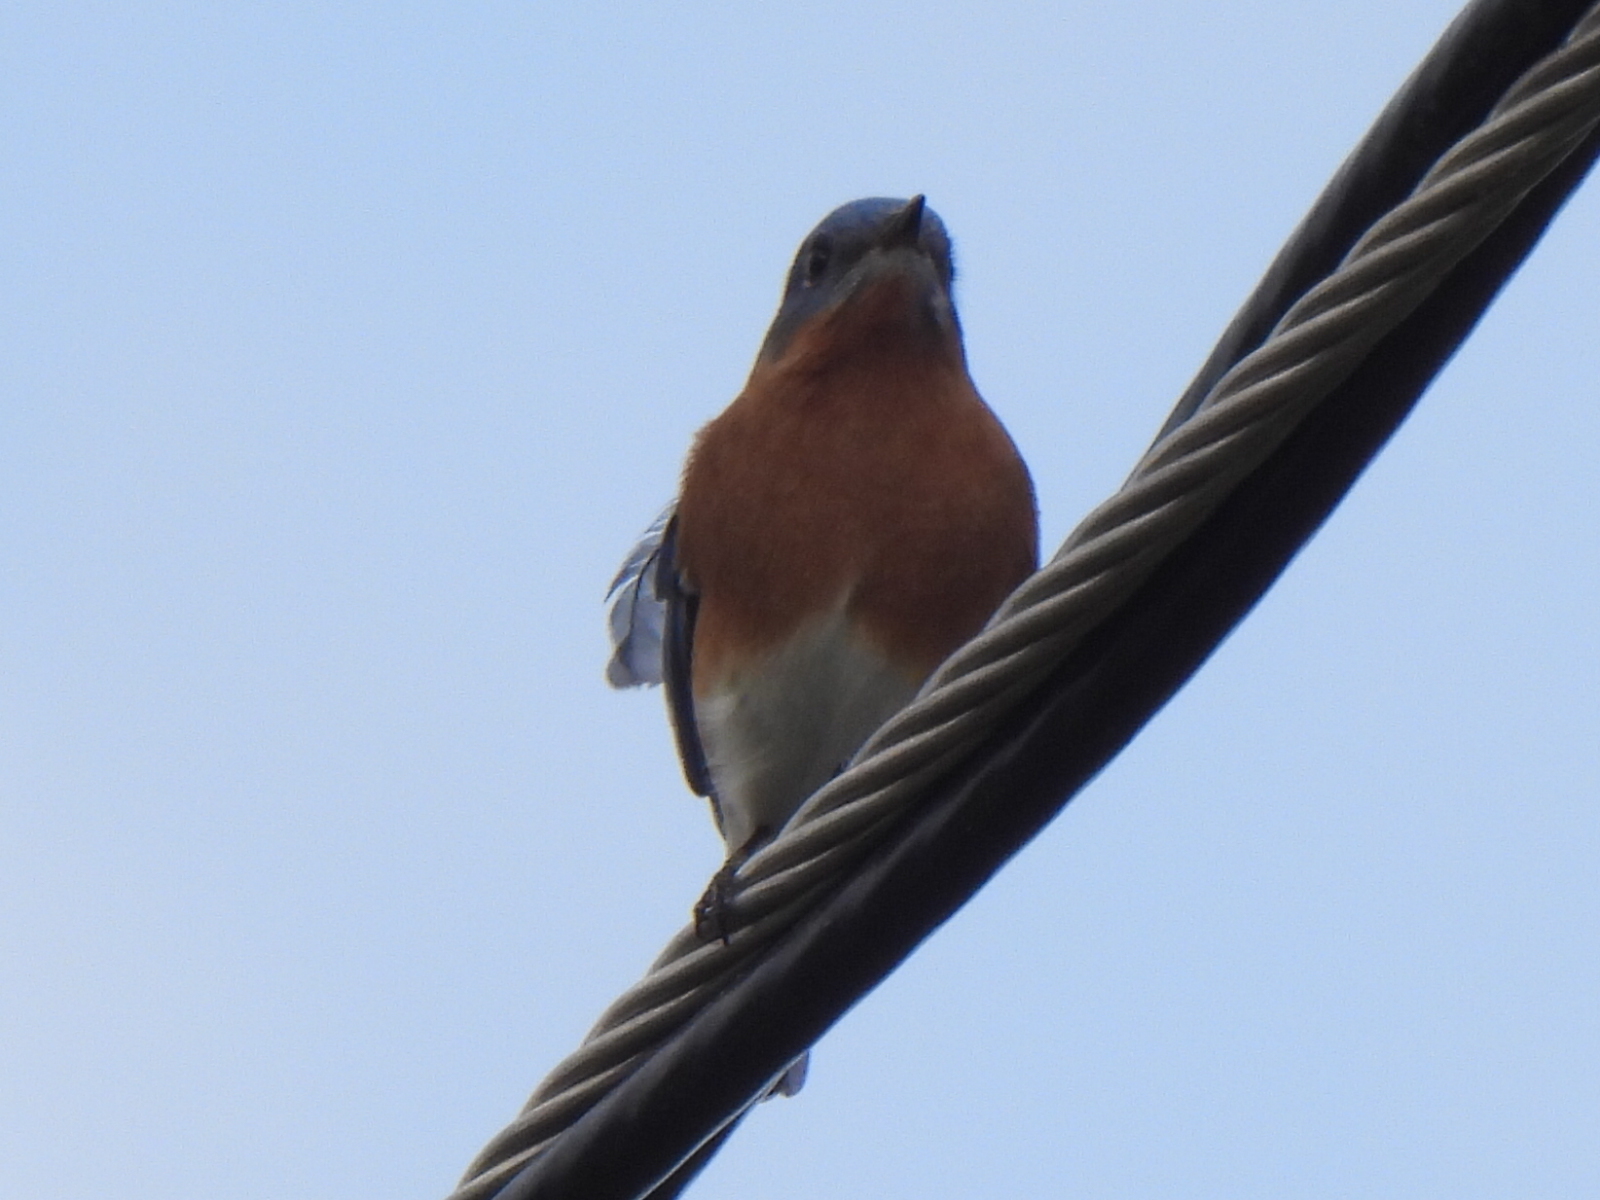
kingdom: Animalia
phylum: Chordata
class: Aves
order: Passeriformes
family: Turdidae
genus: Sialia
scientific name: Sialia sialis
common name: Eastern bluebird
